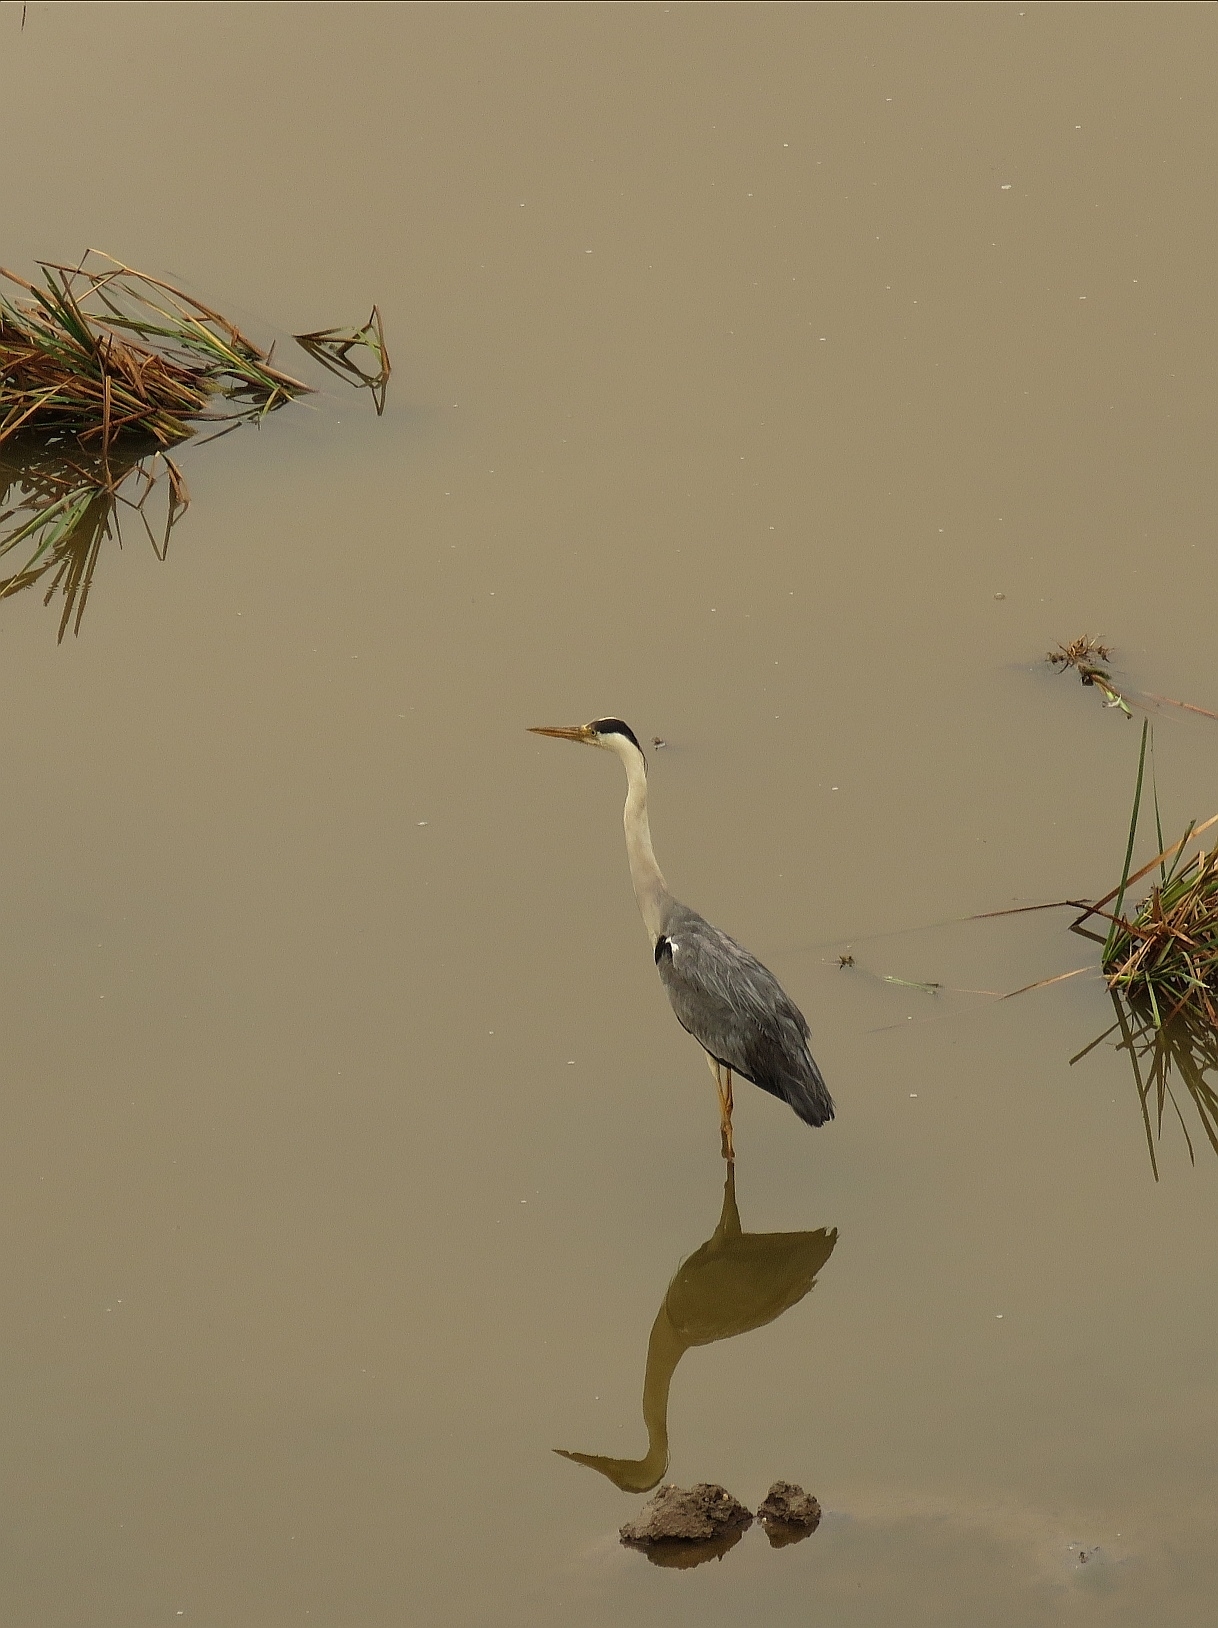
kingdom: Animalia
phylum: Chordata
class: Aves
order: Pelecaniformes
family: Ardeidae
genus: Ardea
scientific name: Ardea cinerea
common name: Grey heron
